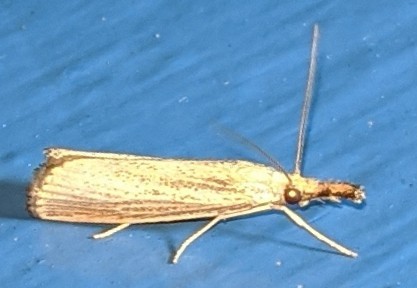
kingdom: Animalia
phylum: Arthropoda
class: Insecta
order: Lepidoptera
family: Crambidae
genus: Agriphila
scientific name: Agriphila vulgivagellus
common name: Vagabond crambus moth
